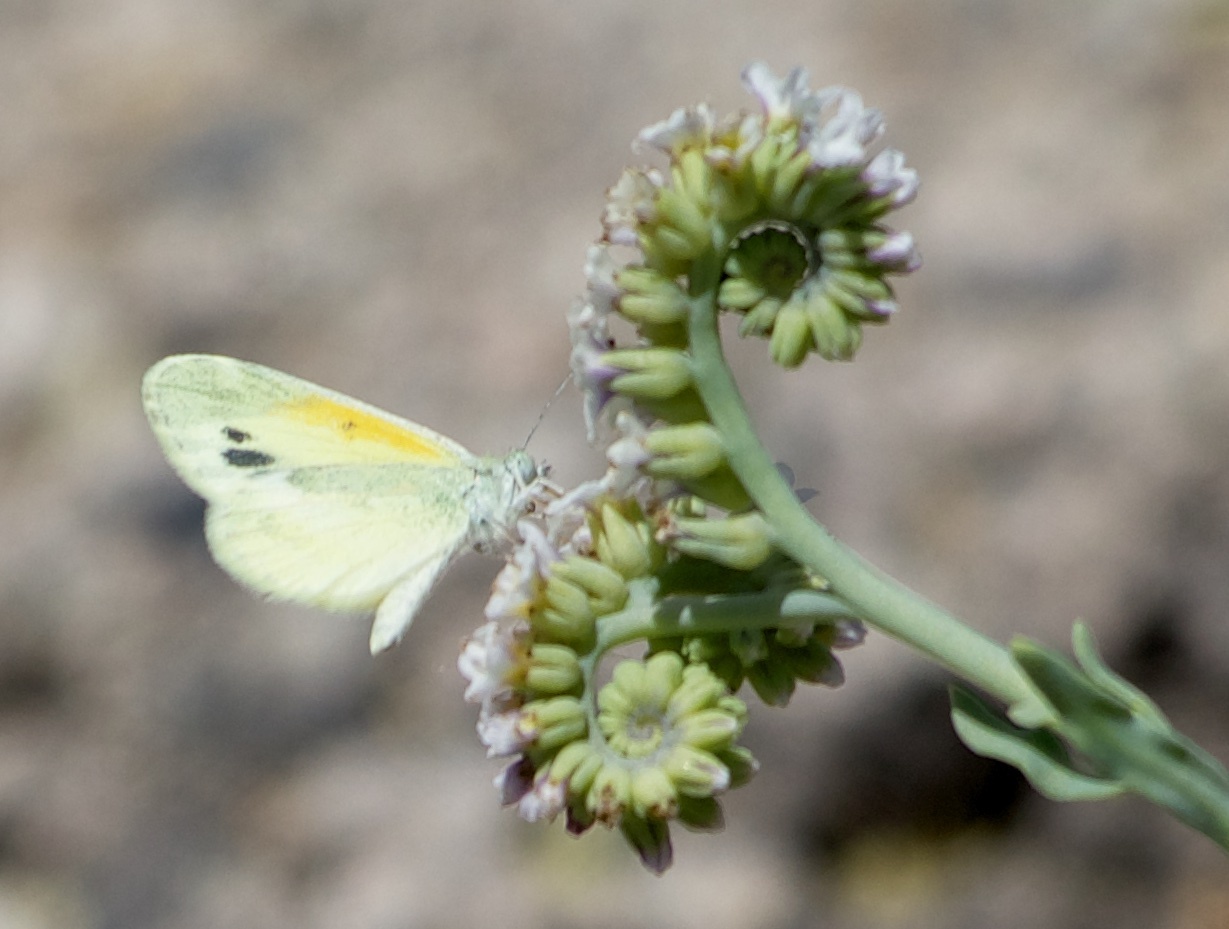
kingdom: Animalia
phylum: Arthropoda
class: Insecta
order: Lepidoptera
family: Pieridae
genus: Nathalis
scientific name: Nathalis iole
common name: Dainty sulphur
